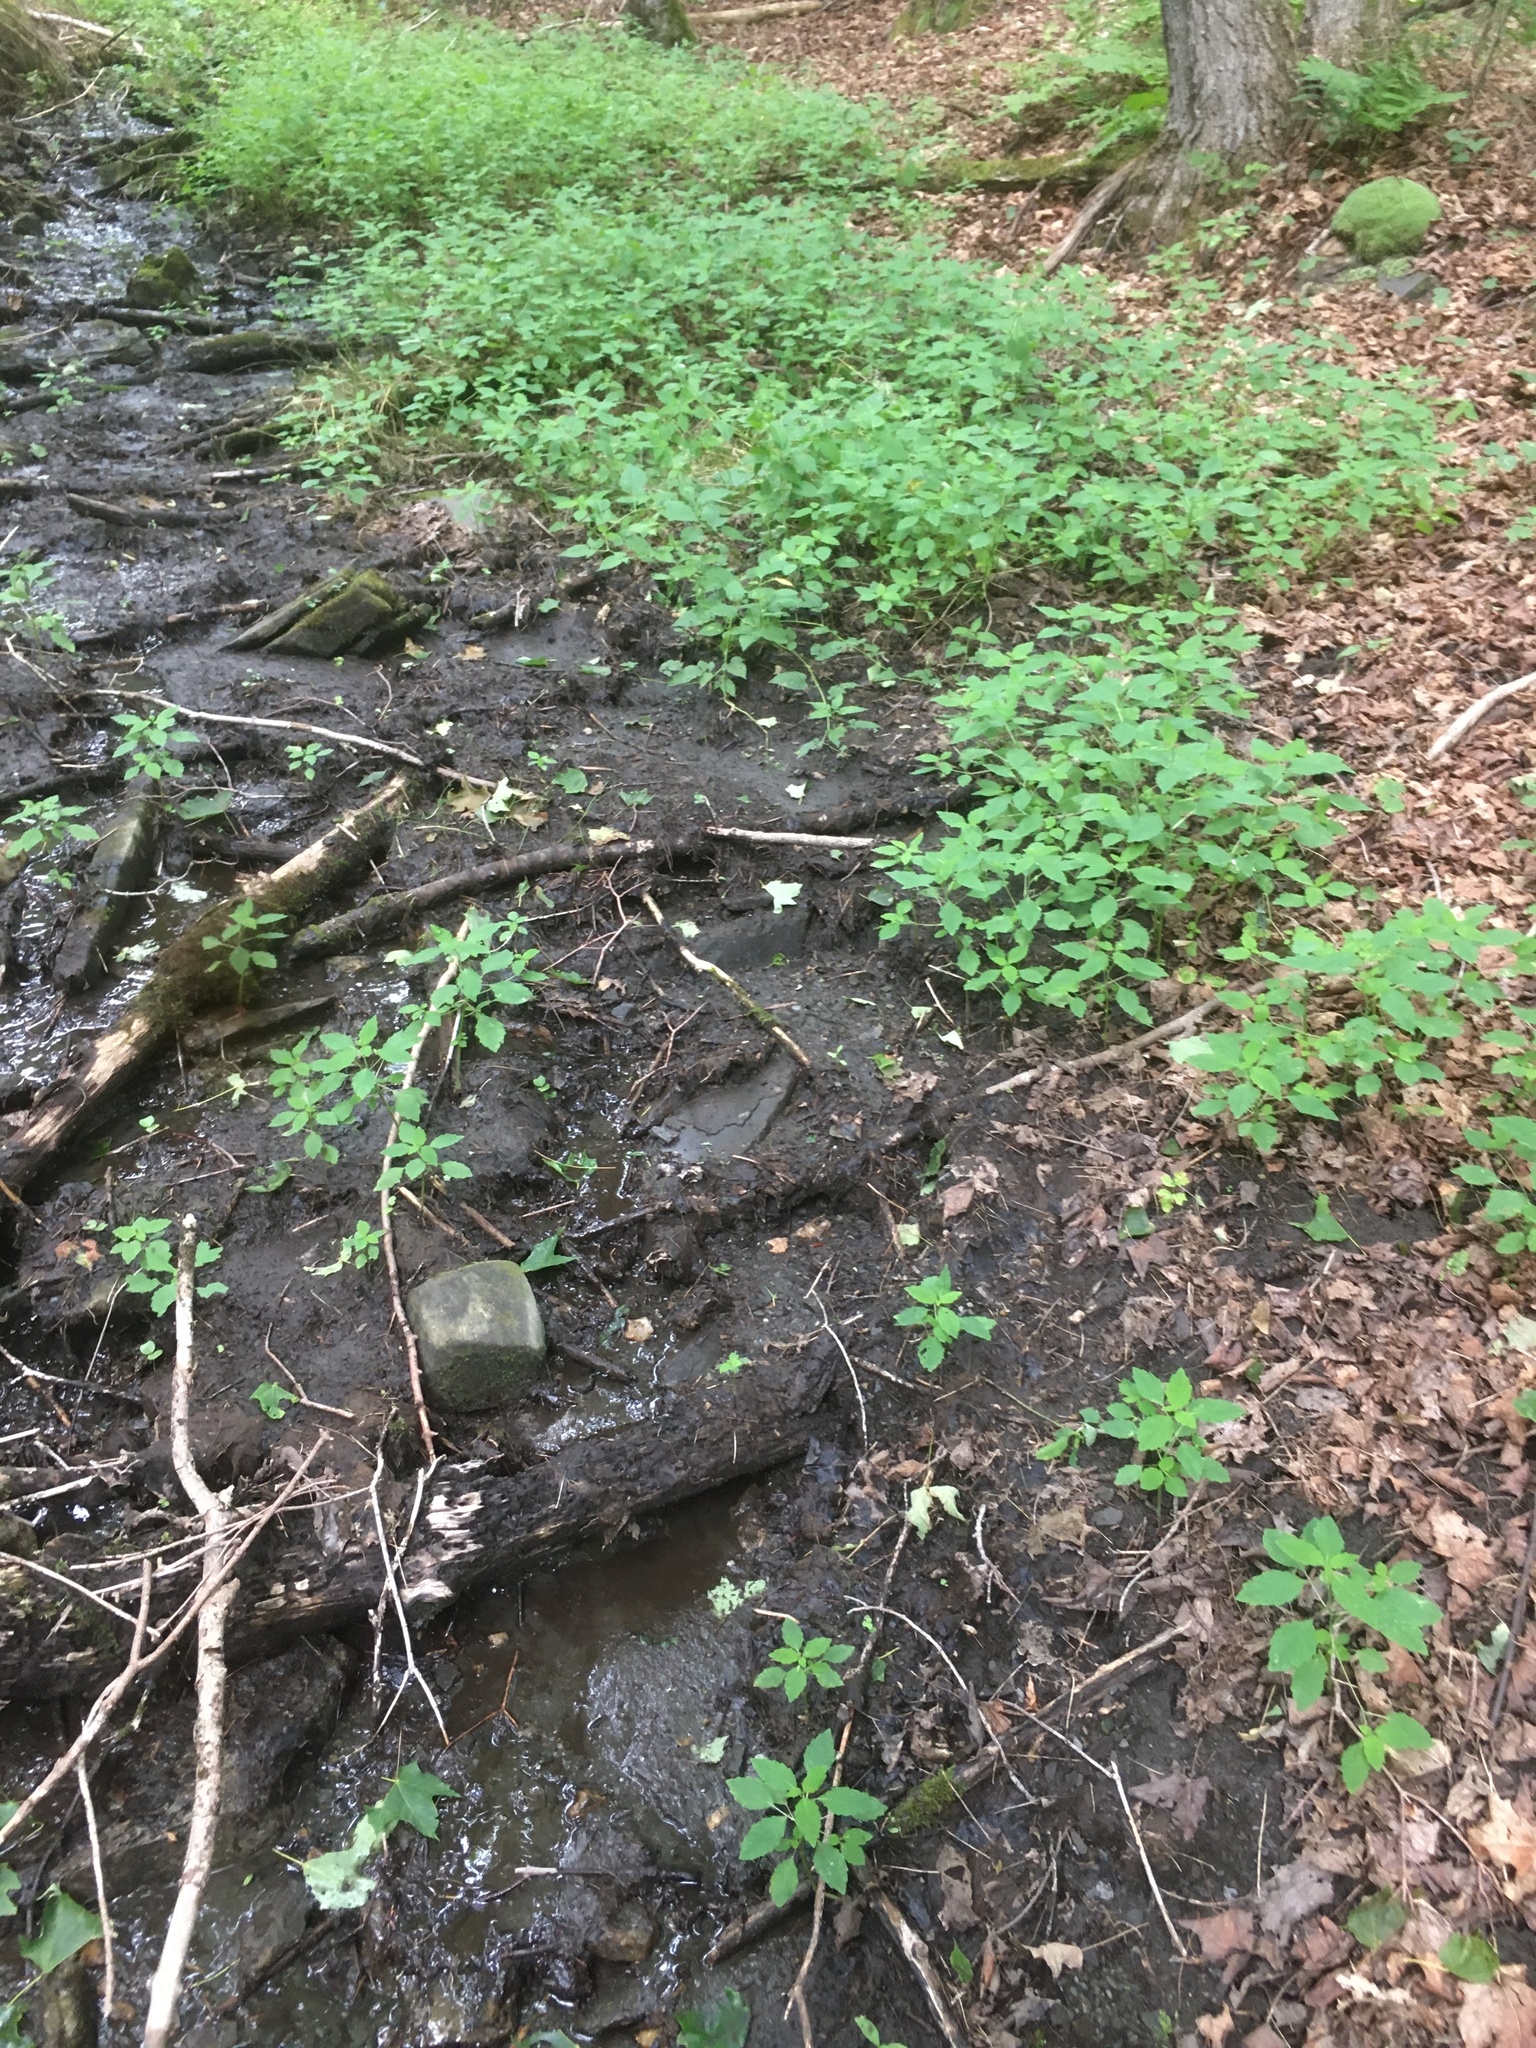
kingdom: Plantae
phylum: Tracheophyta
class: Magnoliopsida
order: Ericales
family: Balsaminaceae
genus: Impatiens
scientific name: Impatiens capensis
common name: Orange balsam
